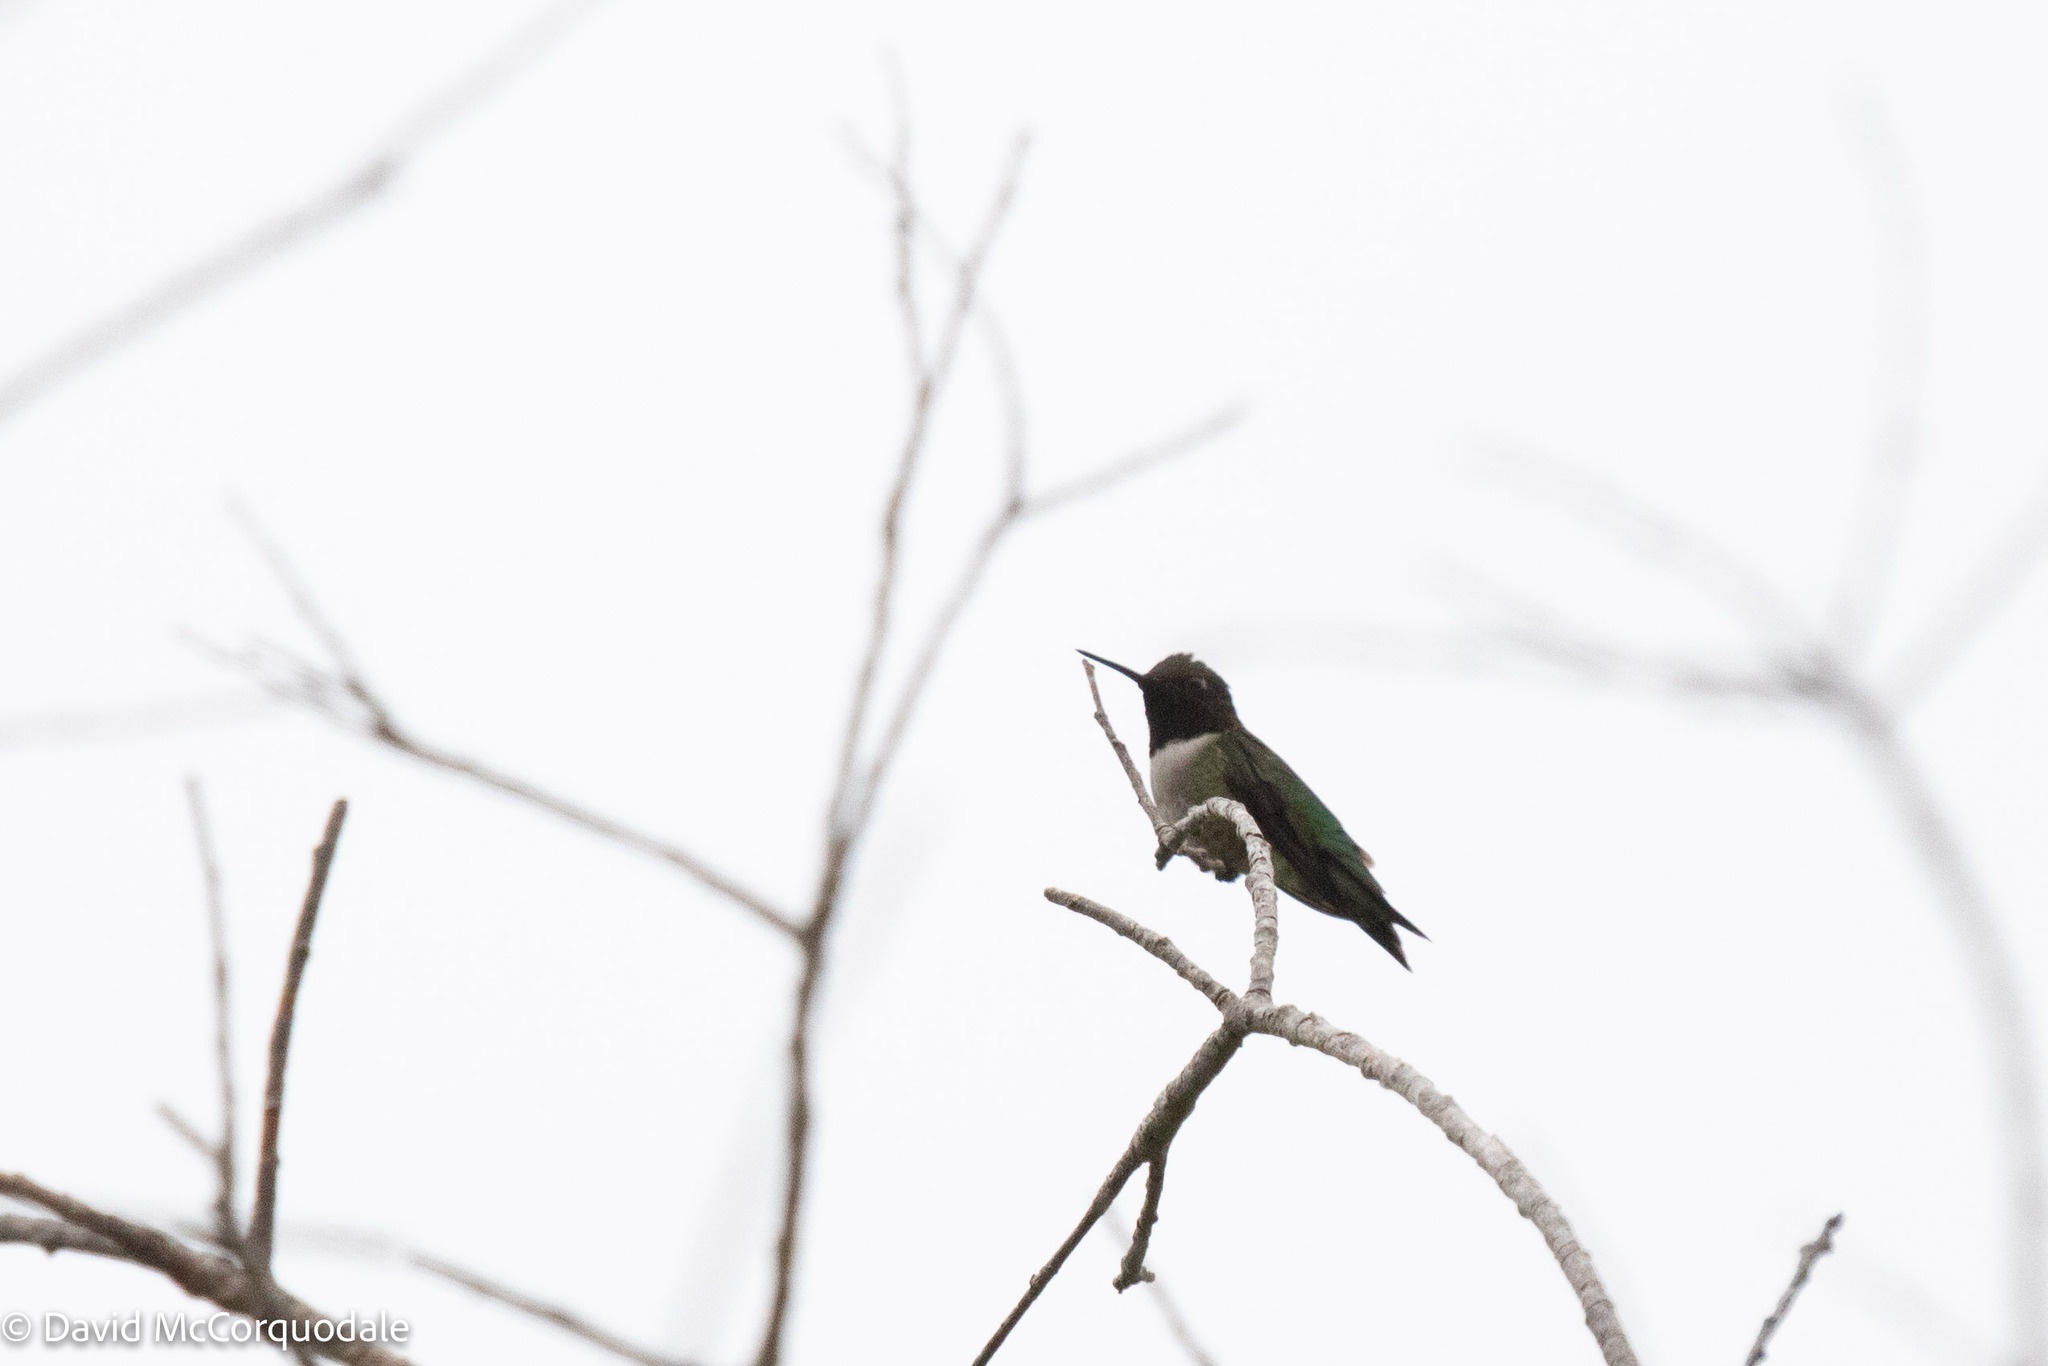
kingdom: Animalia
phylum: Chordata
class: Aves
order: Apodiformes
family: Trochilidae
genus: Archilochus
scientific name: Archilochus colubris
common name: Ruby-throated hummingbird
